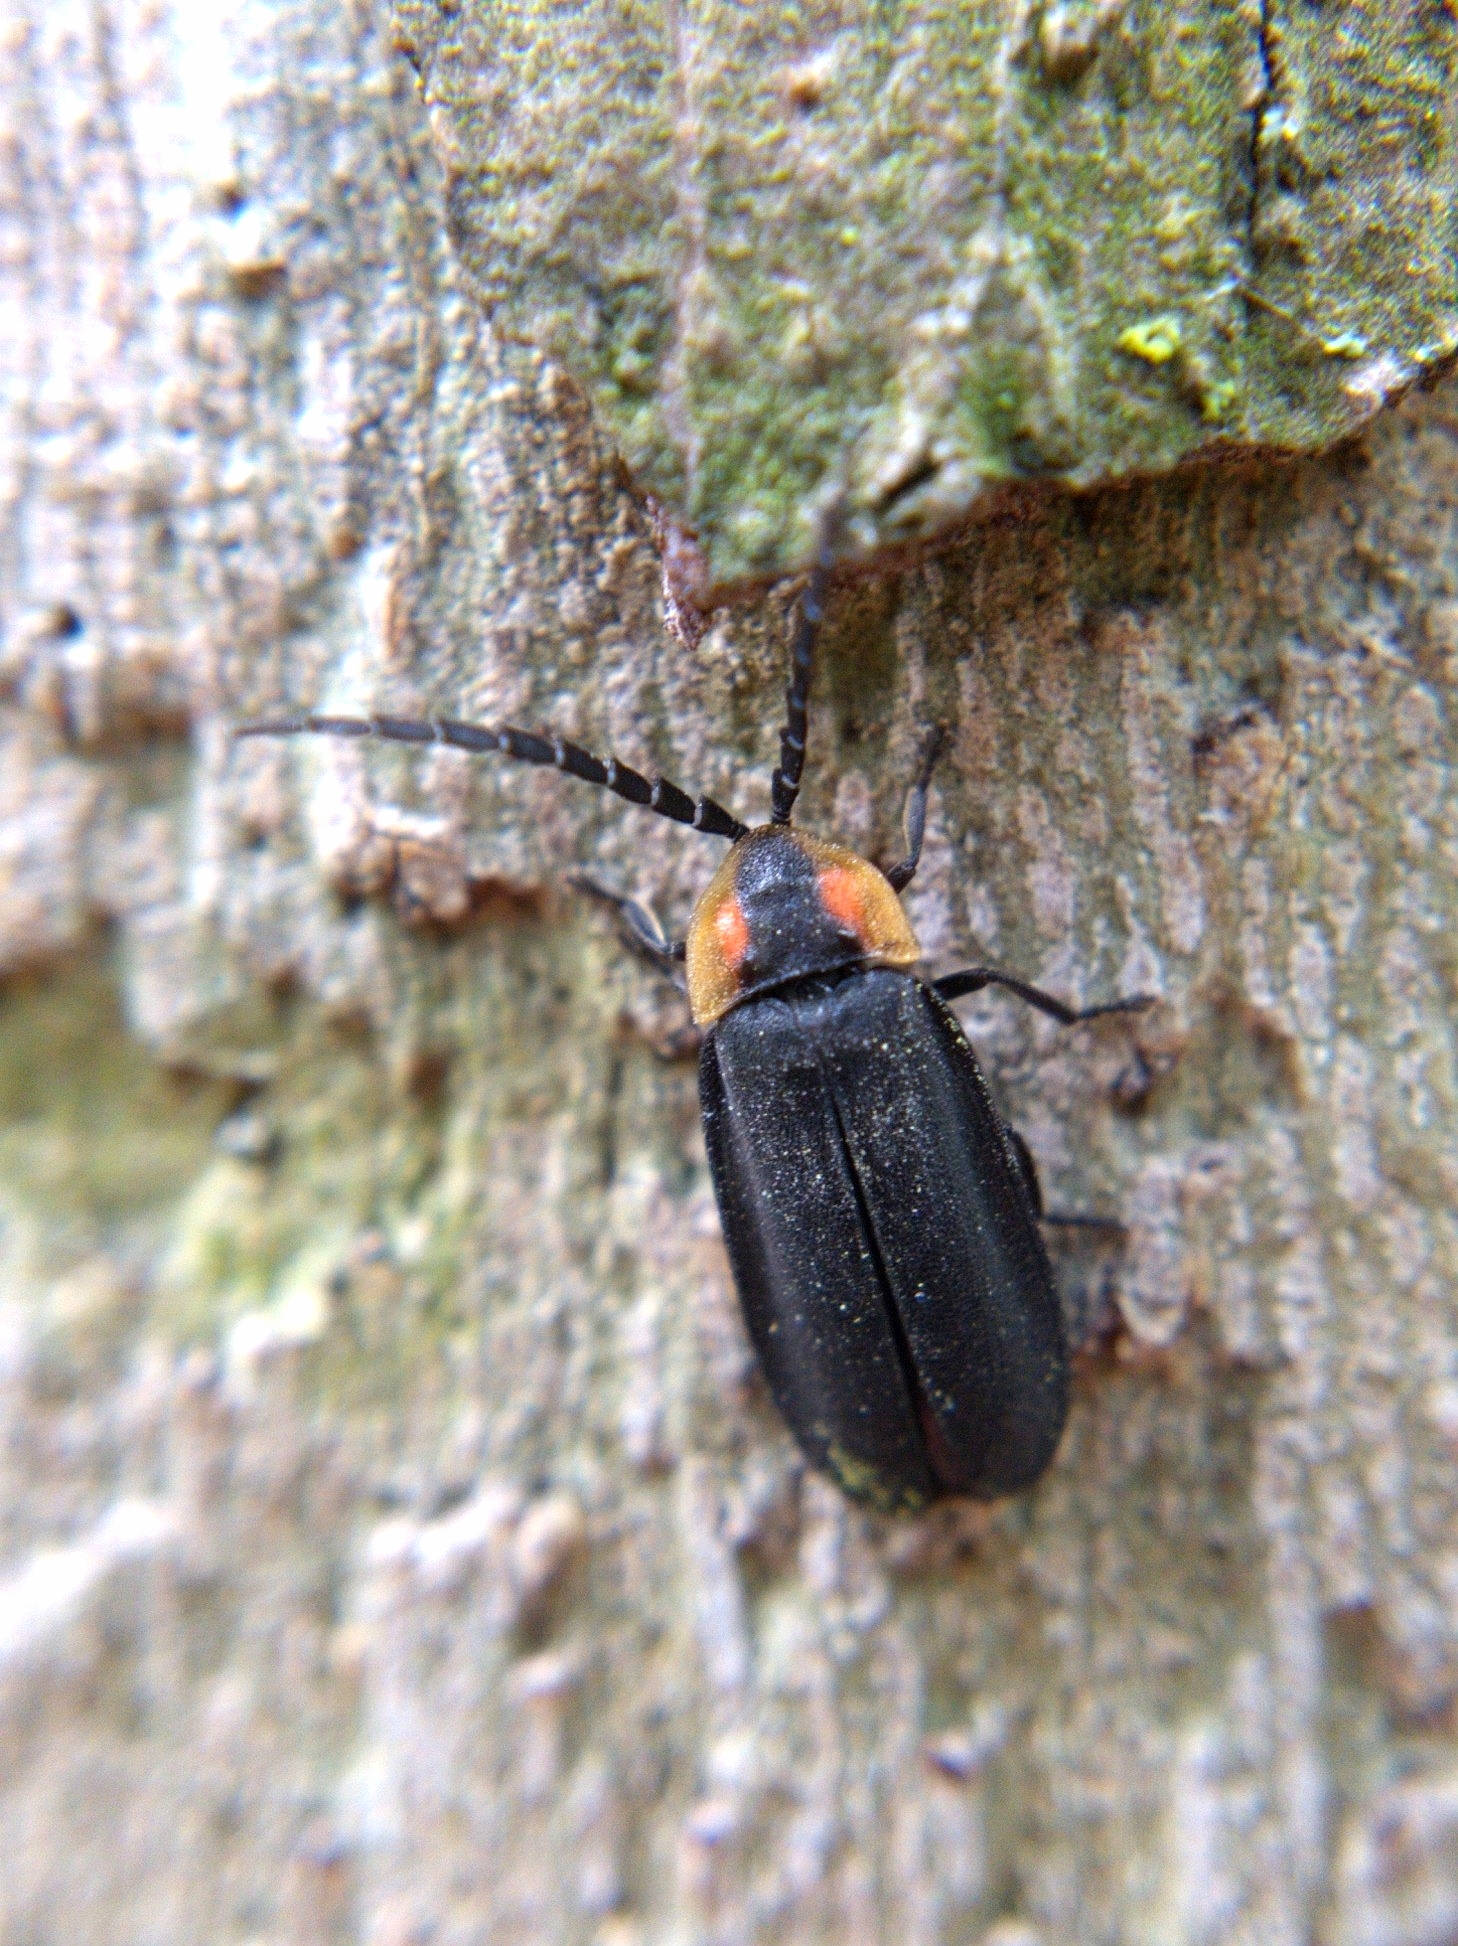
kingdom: Animalia
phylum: Arthropoda
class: Insecta
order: Coleoptera
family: Lampyridae
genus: Lucidota
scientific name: Lucidota atra
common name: Black firefly
